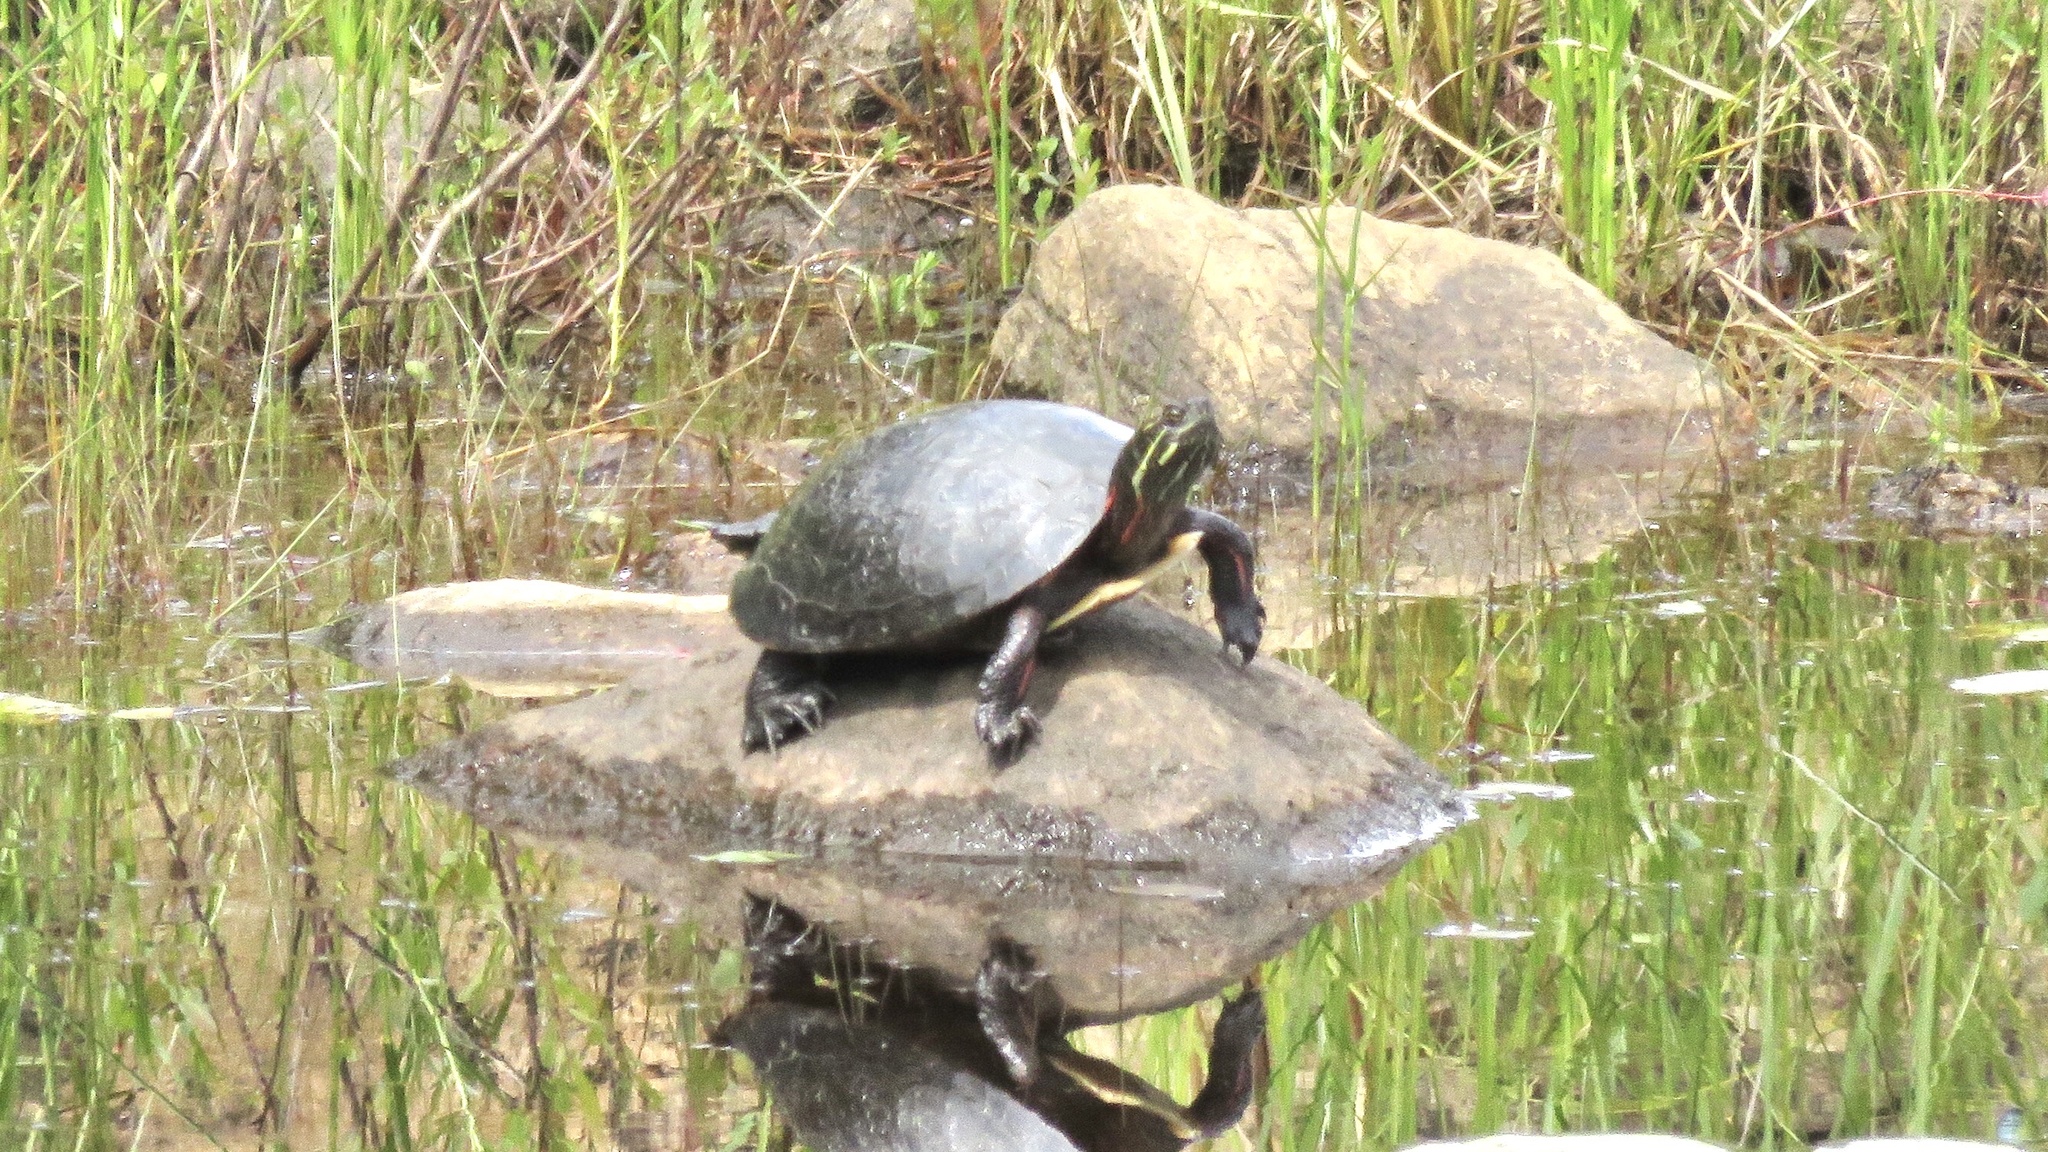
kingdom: Animalia
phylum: Chordata
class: Testudines
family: Emydidae
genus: Chrysemys
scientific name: Chrysemys picta
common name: Painted turtle
